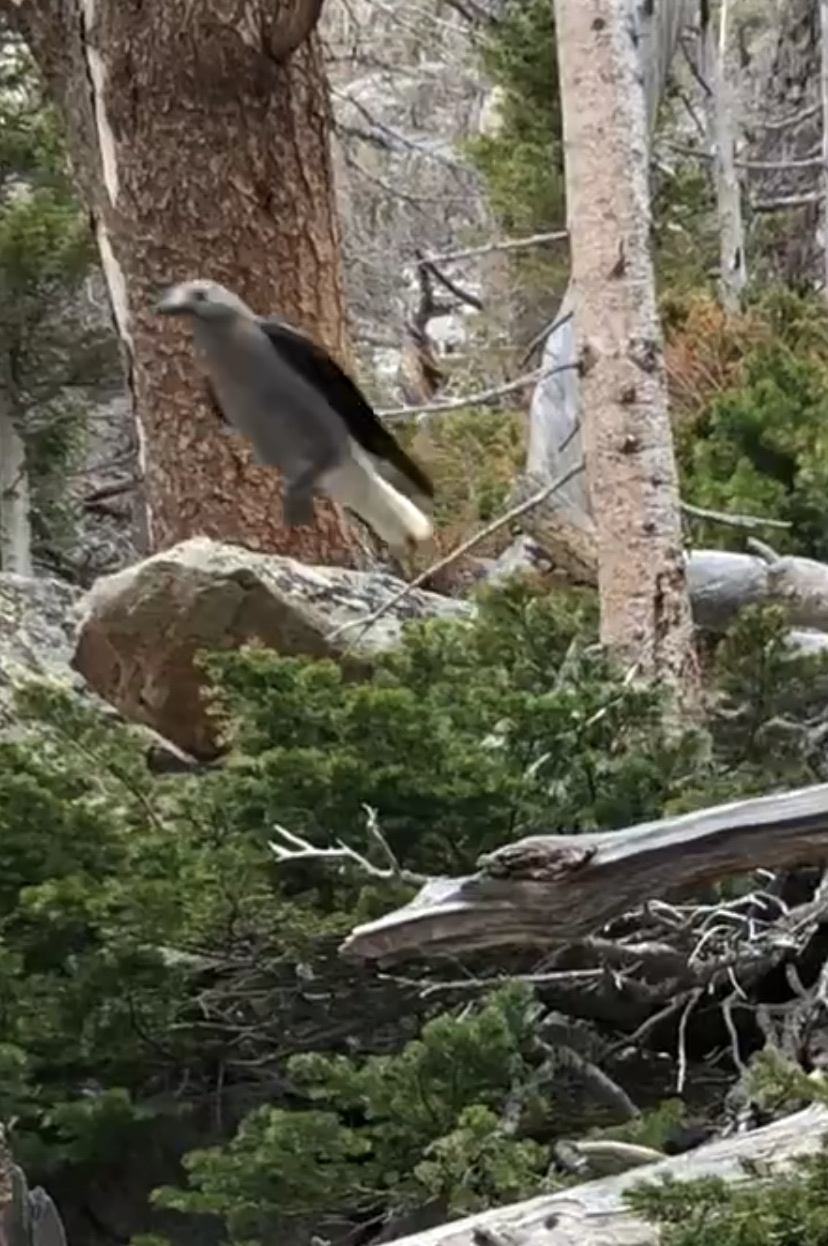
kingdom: Animalia
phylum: Chordata
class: Aves
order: Passeriformes
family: Corvidae
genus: Nucifraga
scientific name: Nucifraga columbiana
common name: Clark's nutcracker
